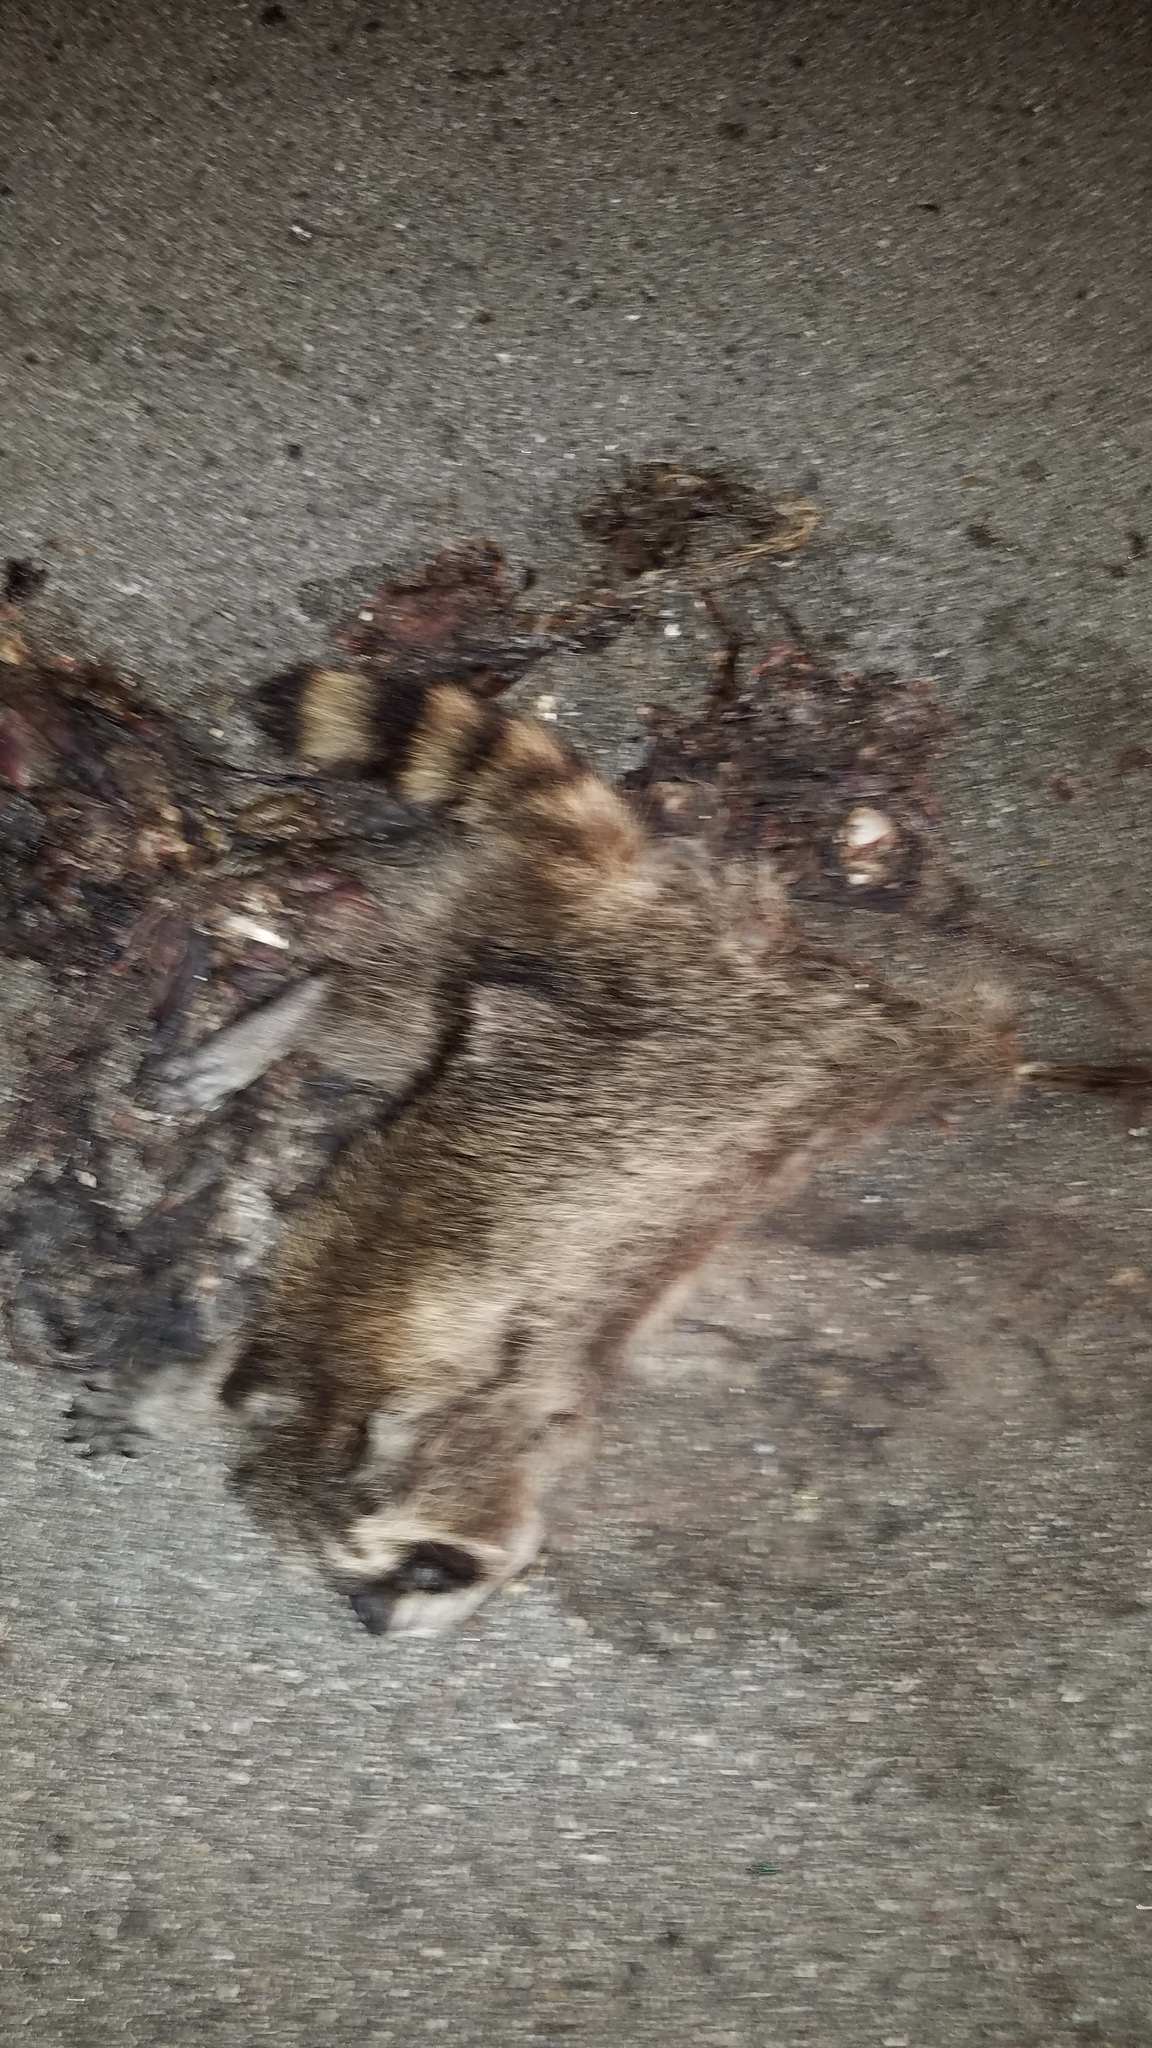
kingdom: Animalia
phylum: Chordata
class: Mammalia
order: Carnivora
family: Procyonidae
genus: Procyon
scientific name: Procyon lotor
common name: Raccoon
